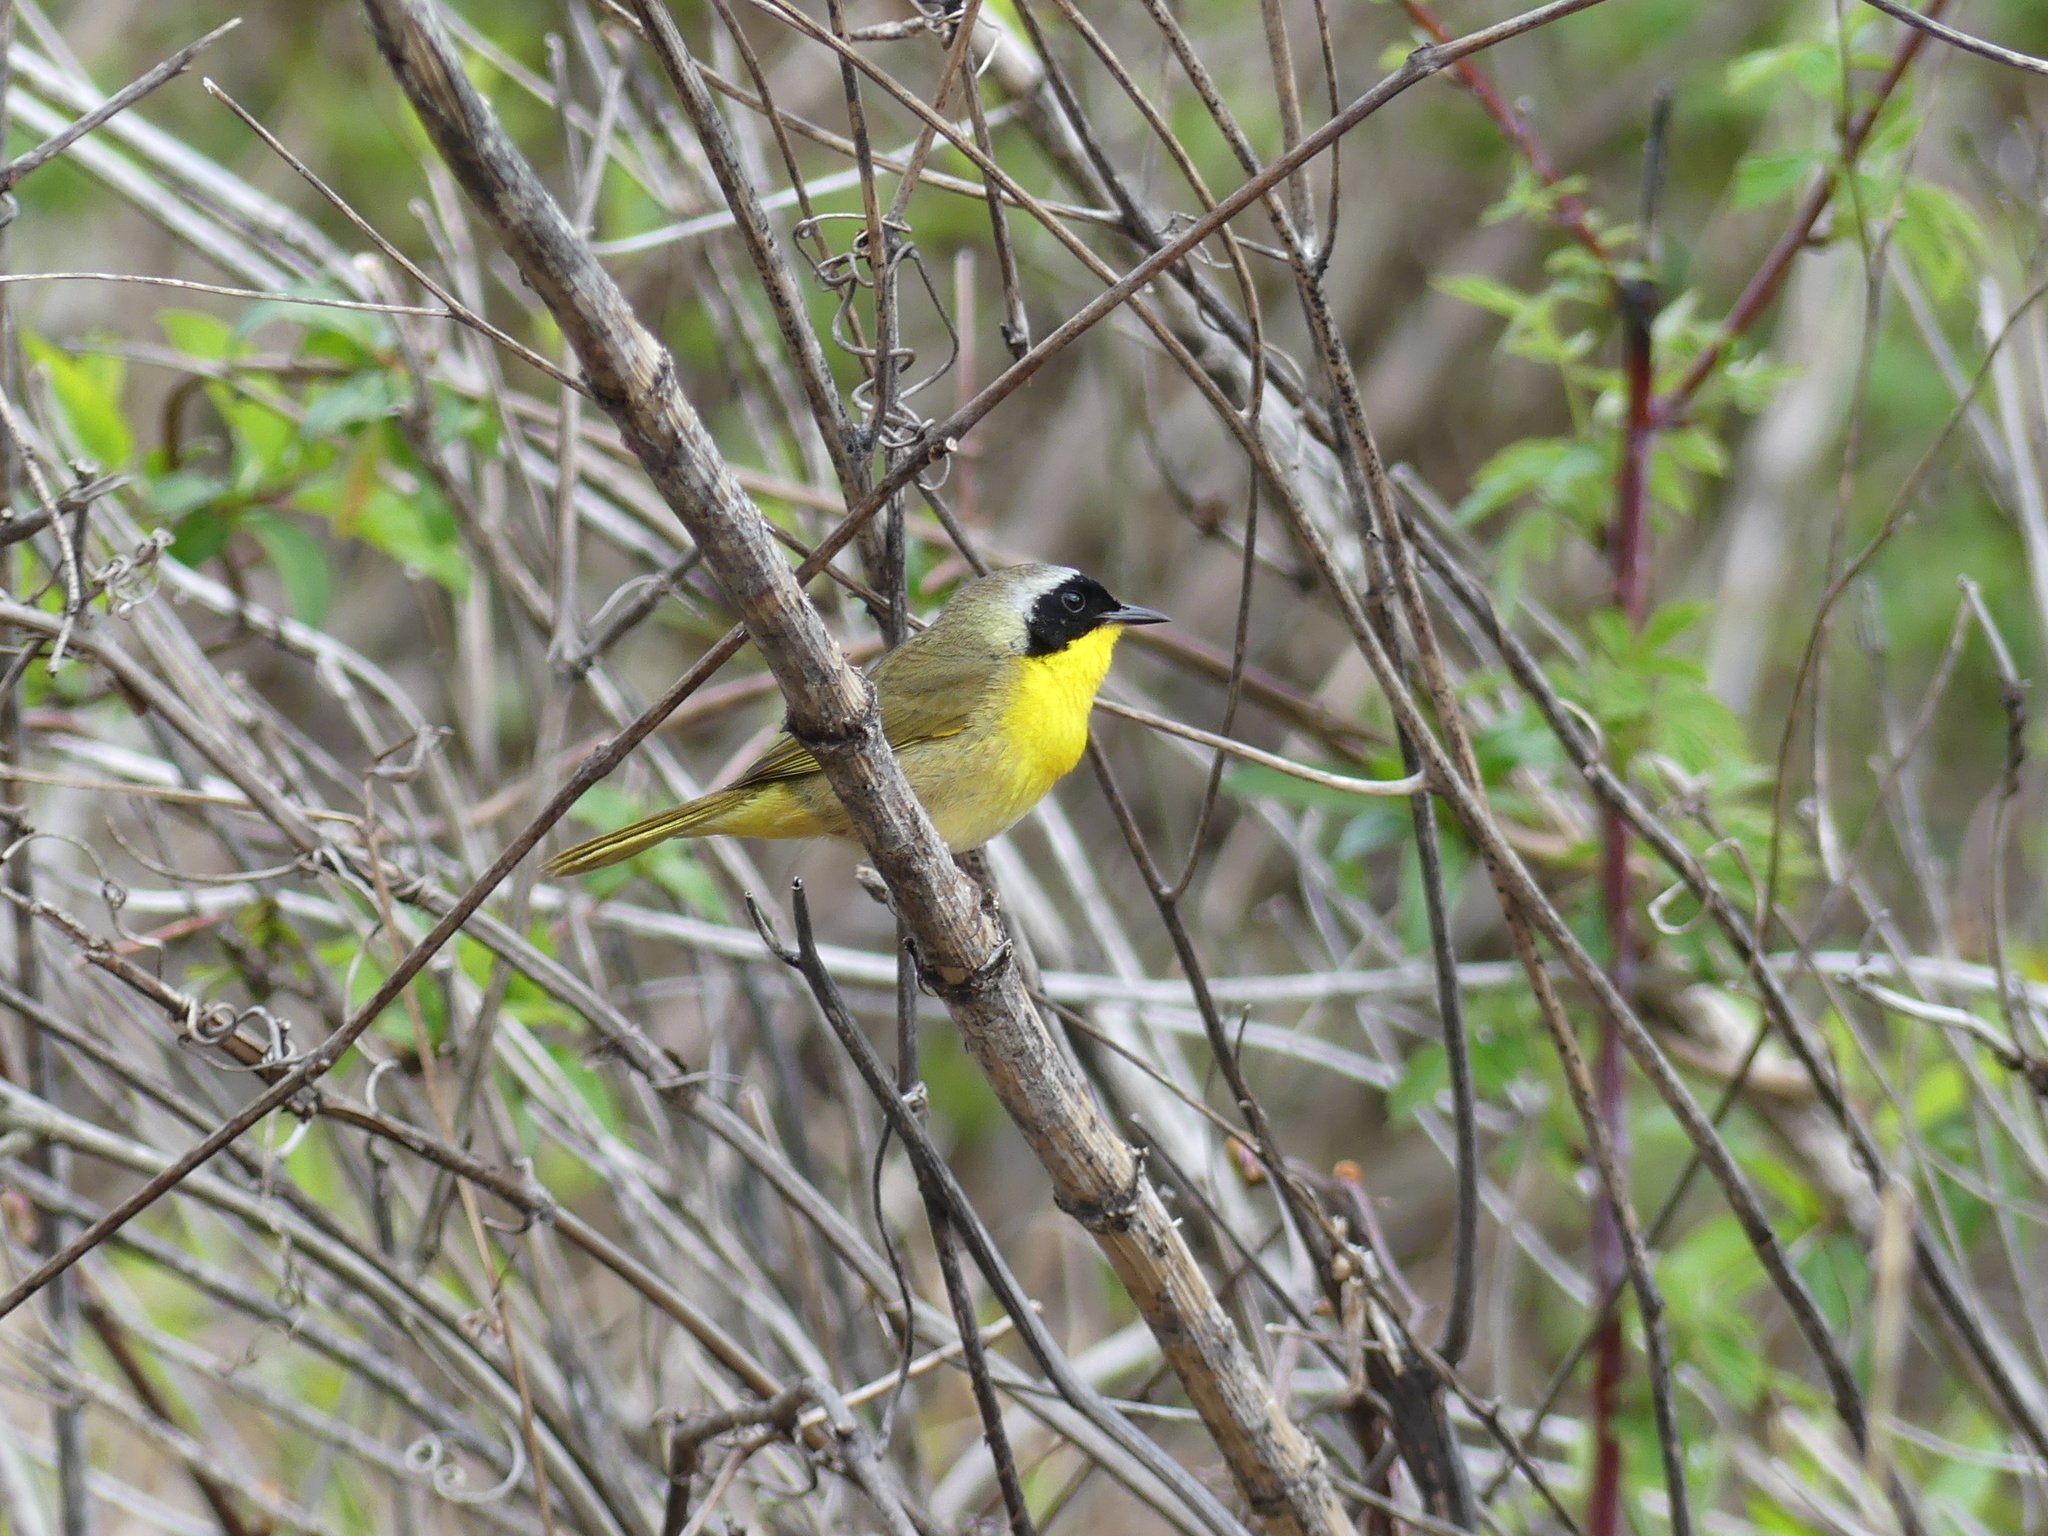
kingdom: Animalia
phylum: Chordata
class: Aves
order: Passeriformes
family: Parulidae
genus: Geothlypis
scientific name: Geothlypis trichas
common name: Common yellowthroat
